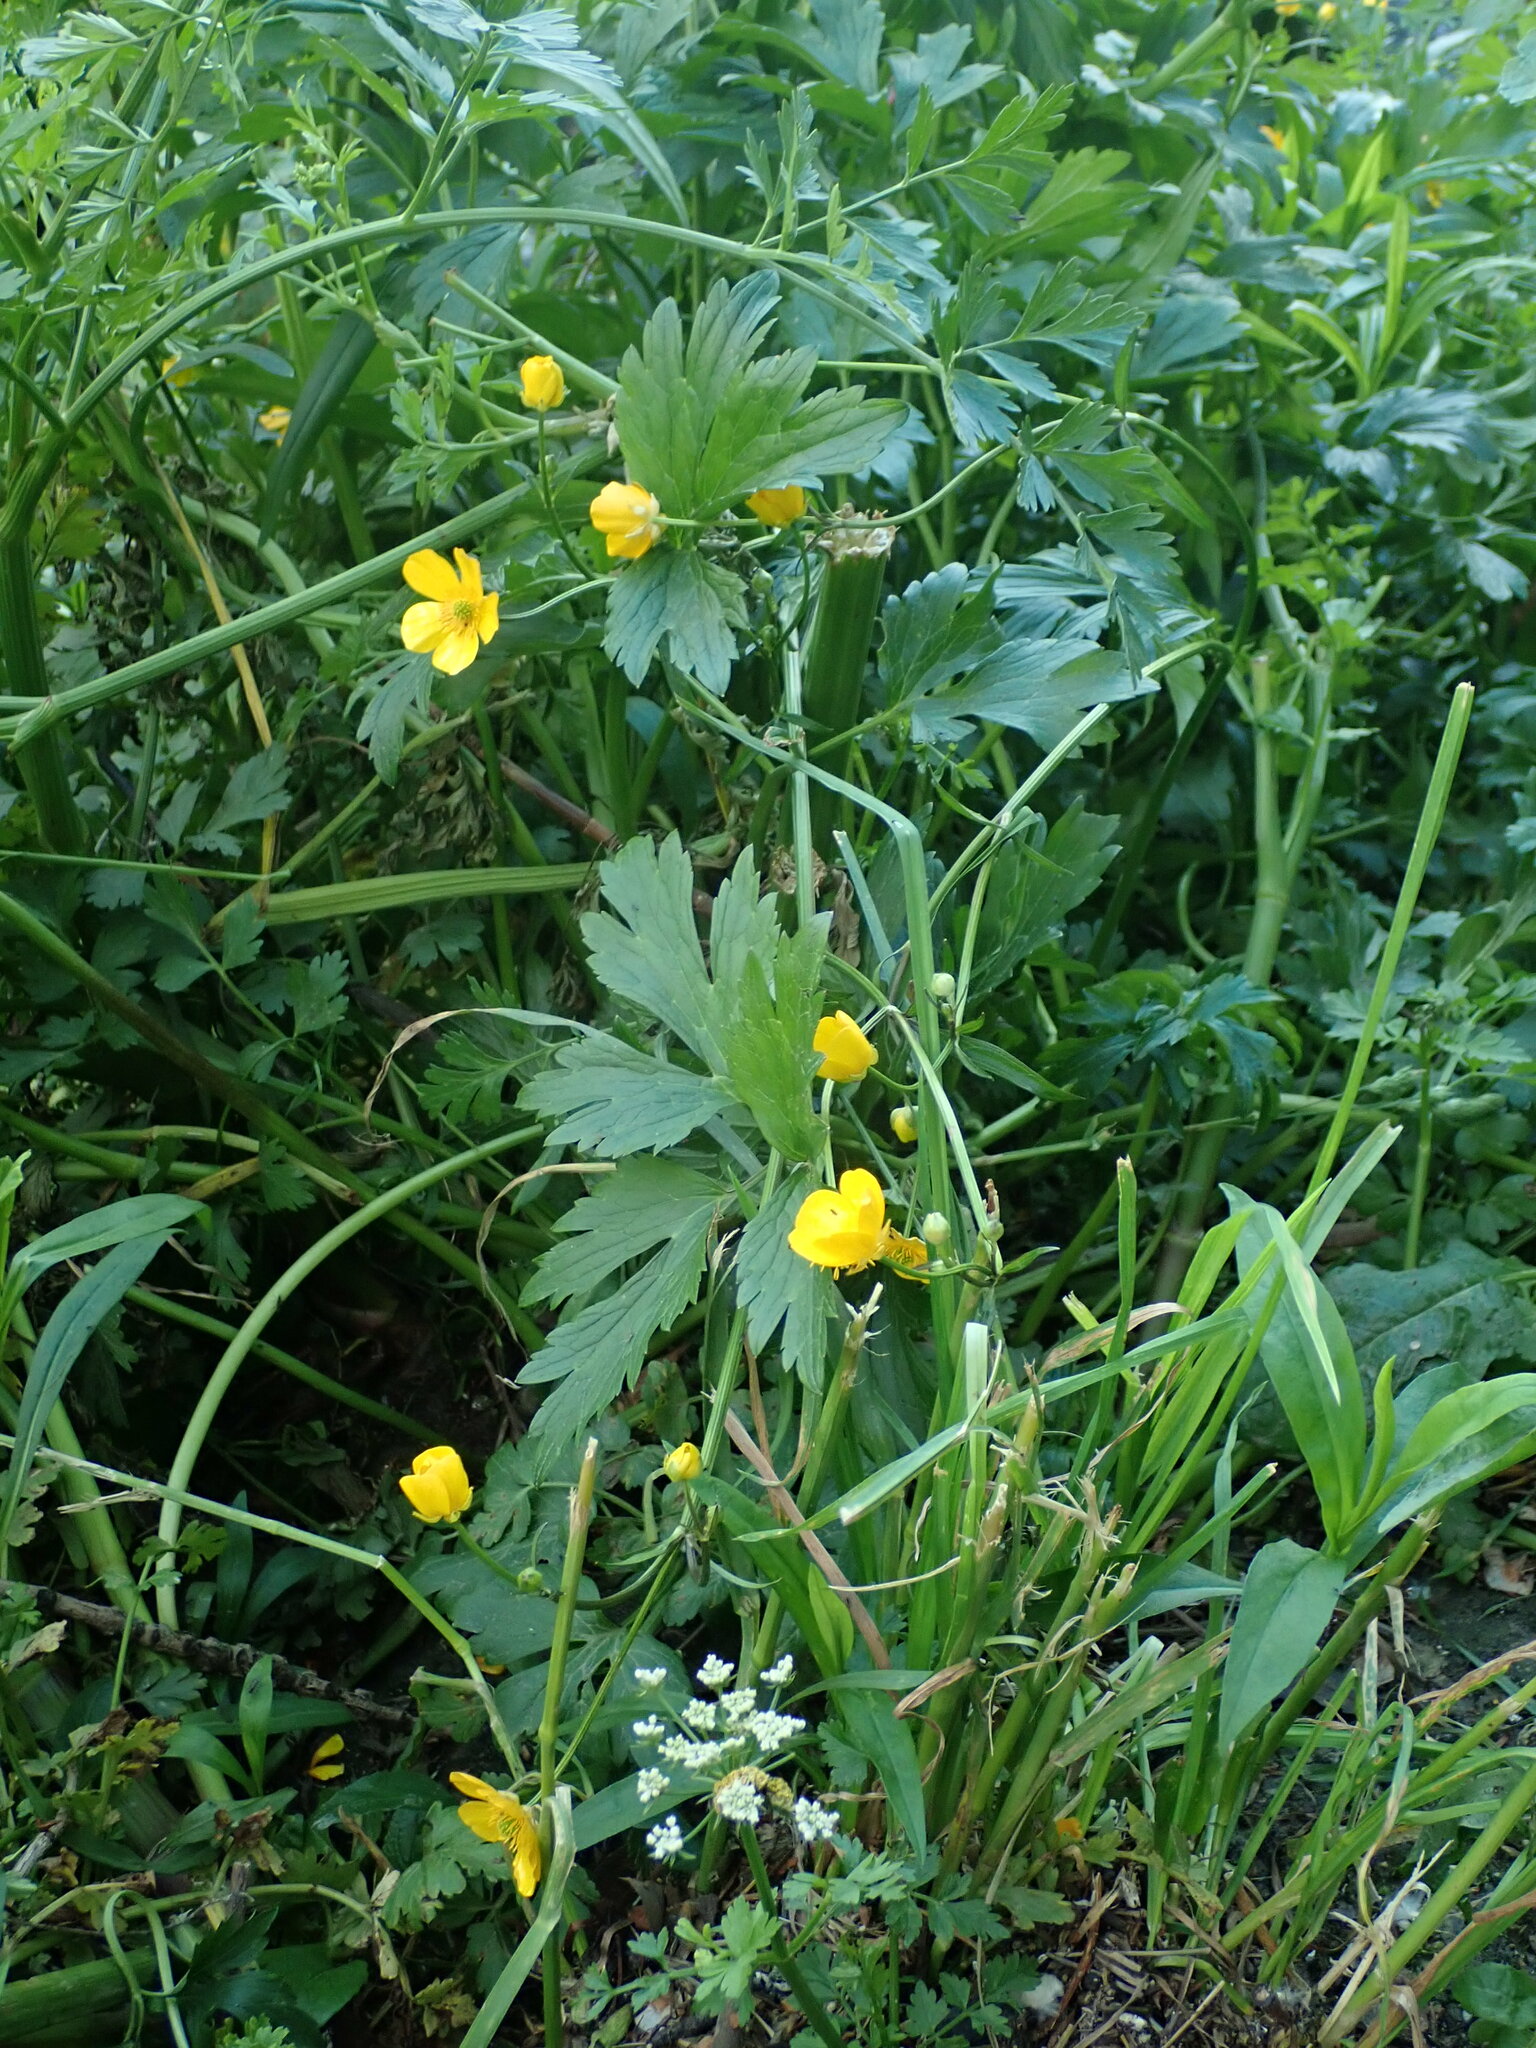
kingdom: Plantae
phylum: Tracheophyta
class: Magnoliopsida
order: Ranunculales
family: Ranunculaceae
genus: Ranunculus
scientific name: Ranunculus repens
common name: Creeping buttercup
